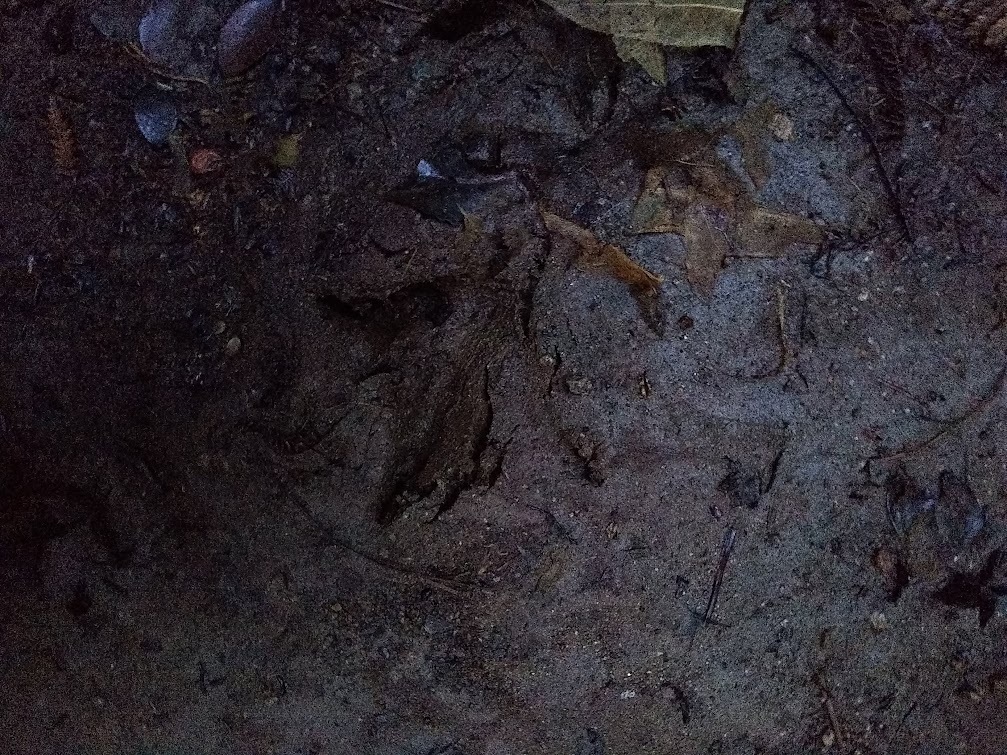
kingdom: Animalia
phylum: Chordata
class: Aves
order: Apterygiformes
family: Apterygidae
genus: Apteryx
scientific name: Apteryx mantelli
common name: North island brown kiwi
